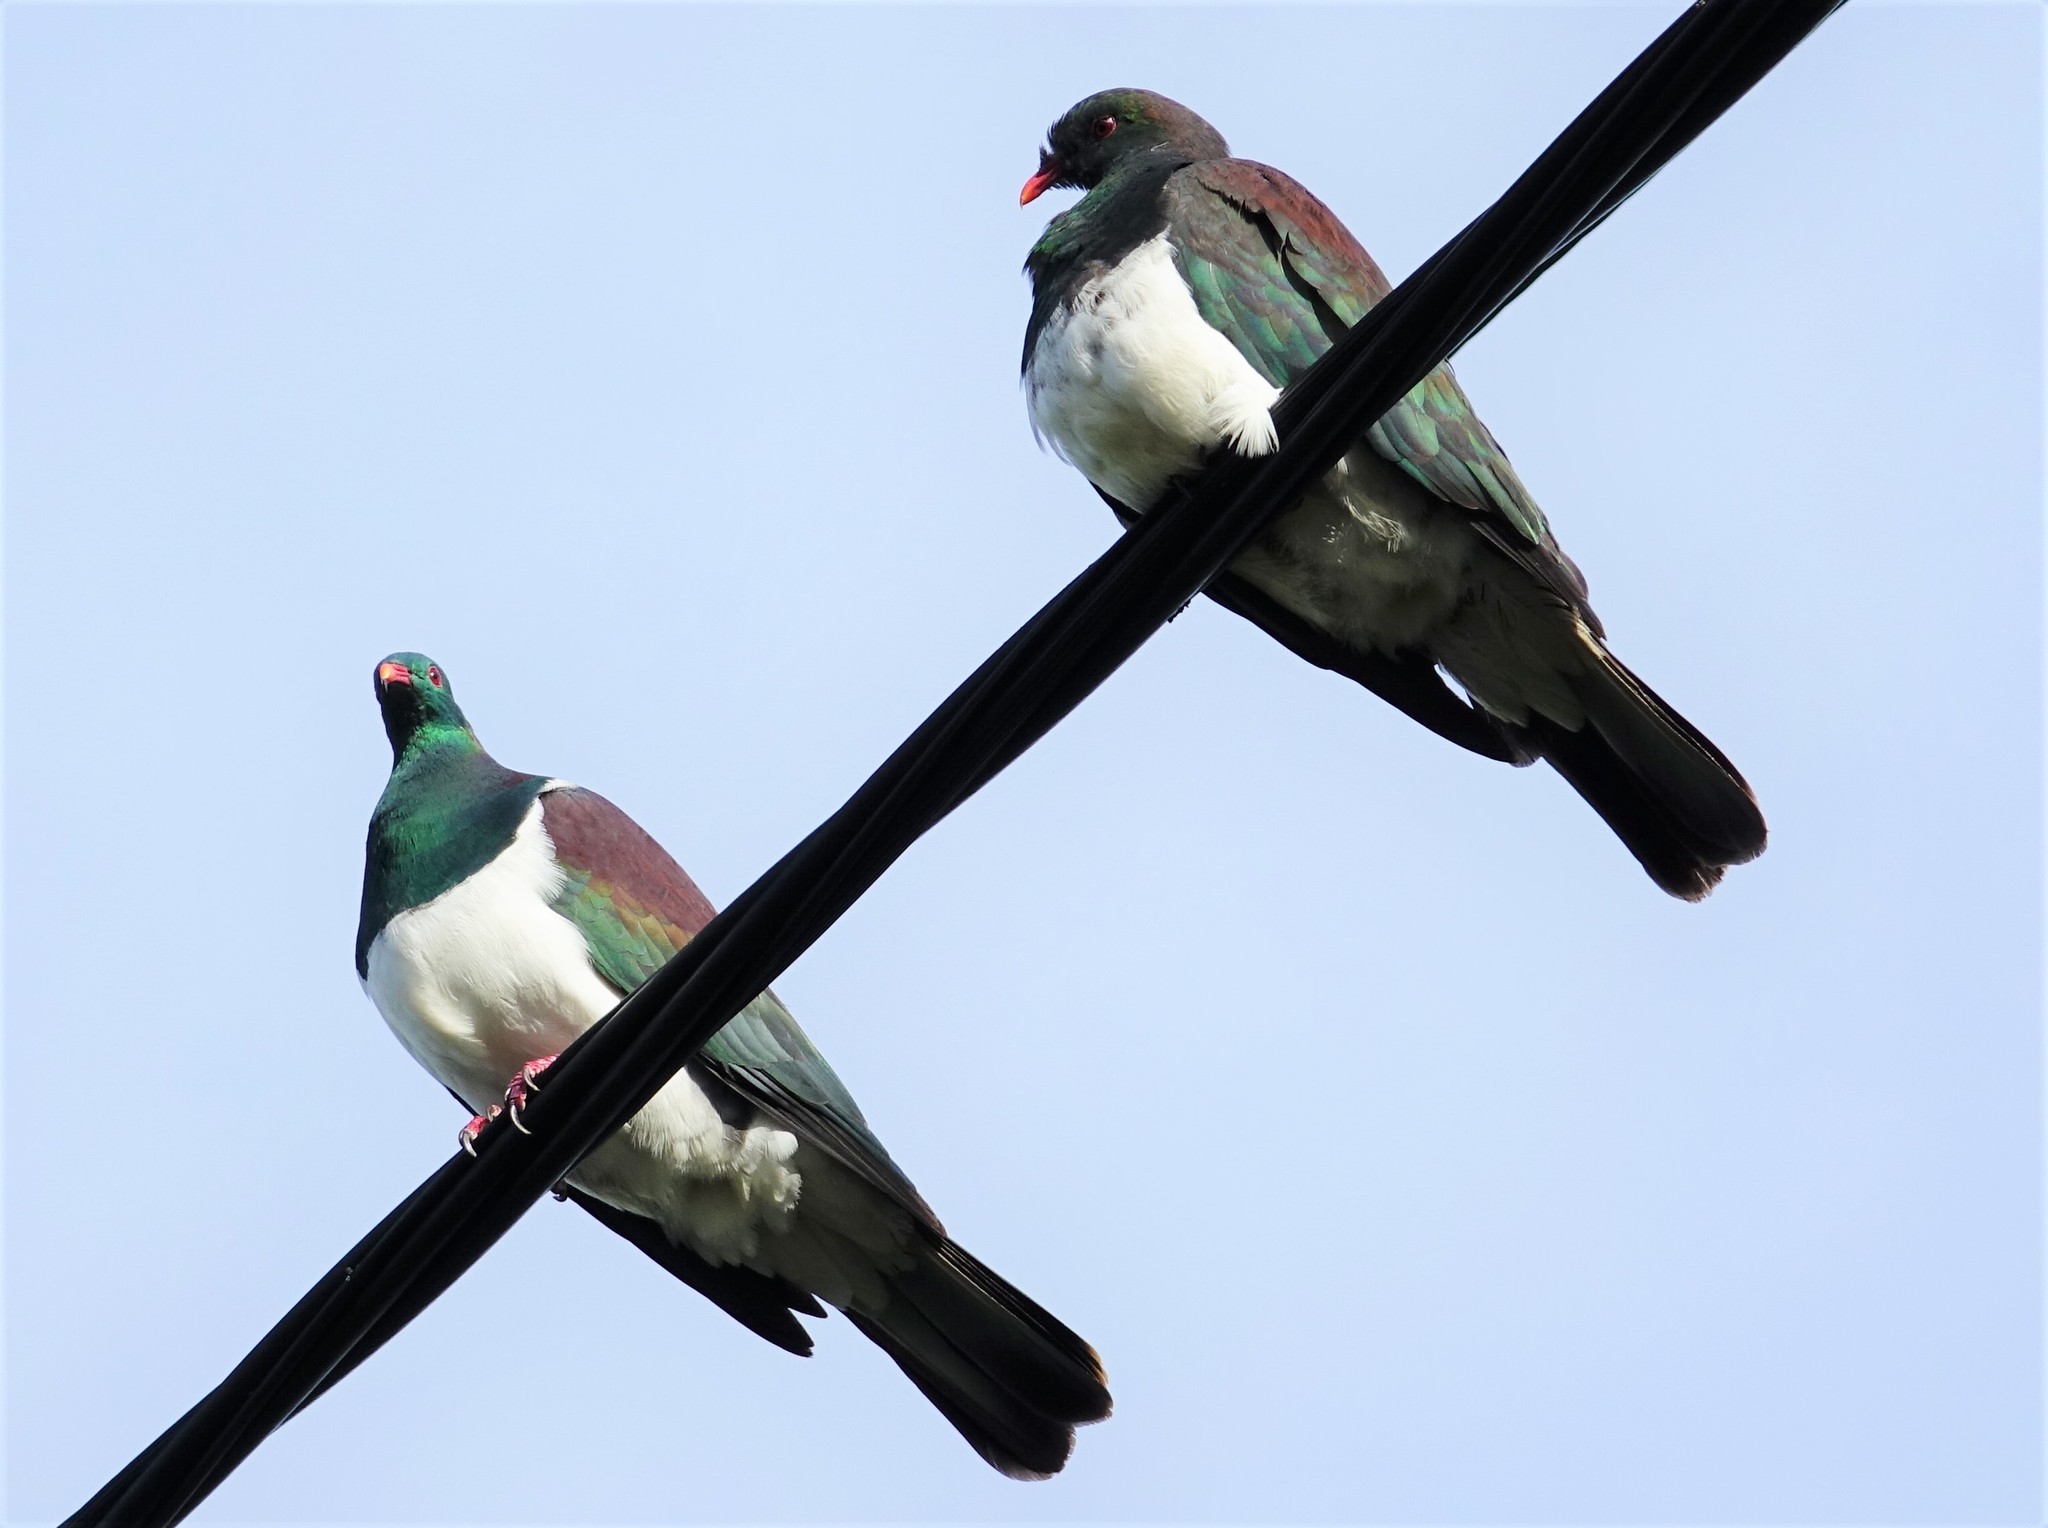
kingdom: Animalia
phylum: Chordata
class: Aves
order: Columbiformes
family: Columbidae
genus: Hemiphaga
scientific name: Hemiphaga novaeseelandiae
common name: New zealand pigeon
